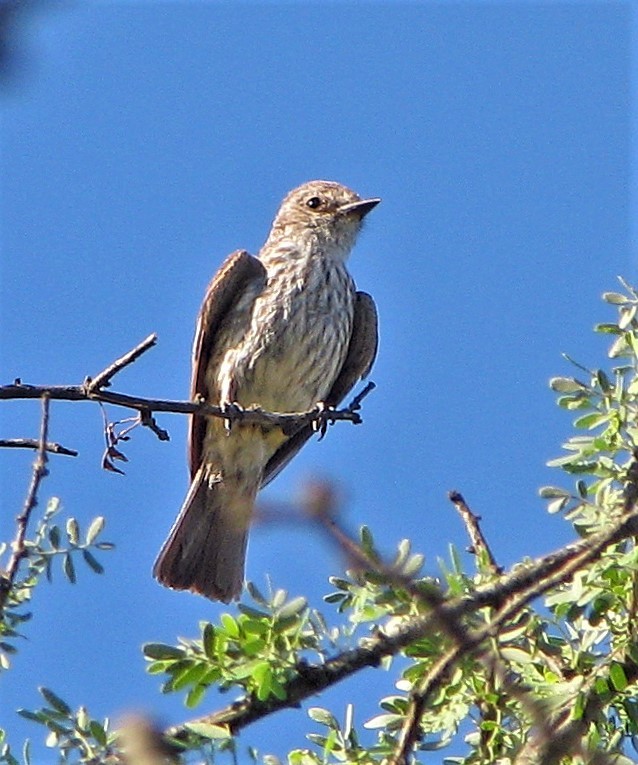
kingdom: Animalia
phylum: Chordata
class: Aves
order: Passeriformes
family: Tyrannidae
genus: Pyrocephalus
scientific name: Pyrocephalus rubinus
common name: Vermilion flycatcher
